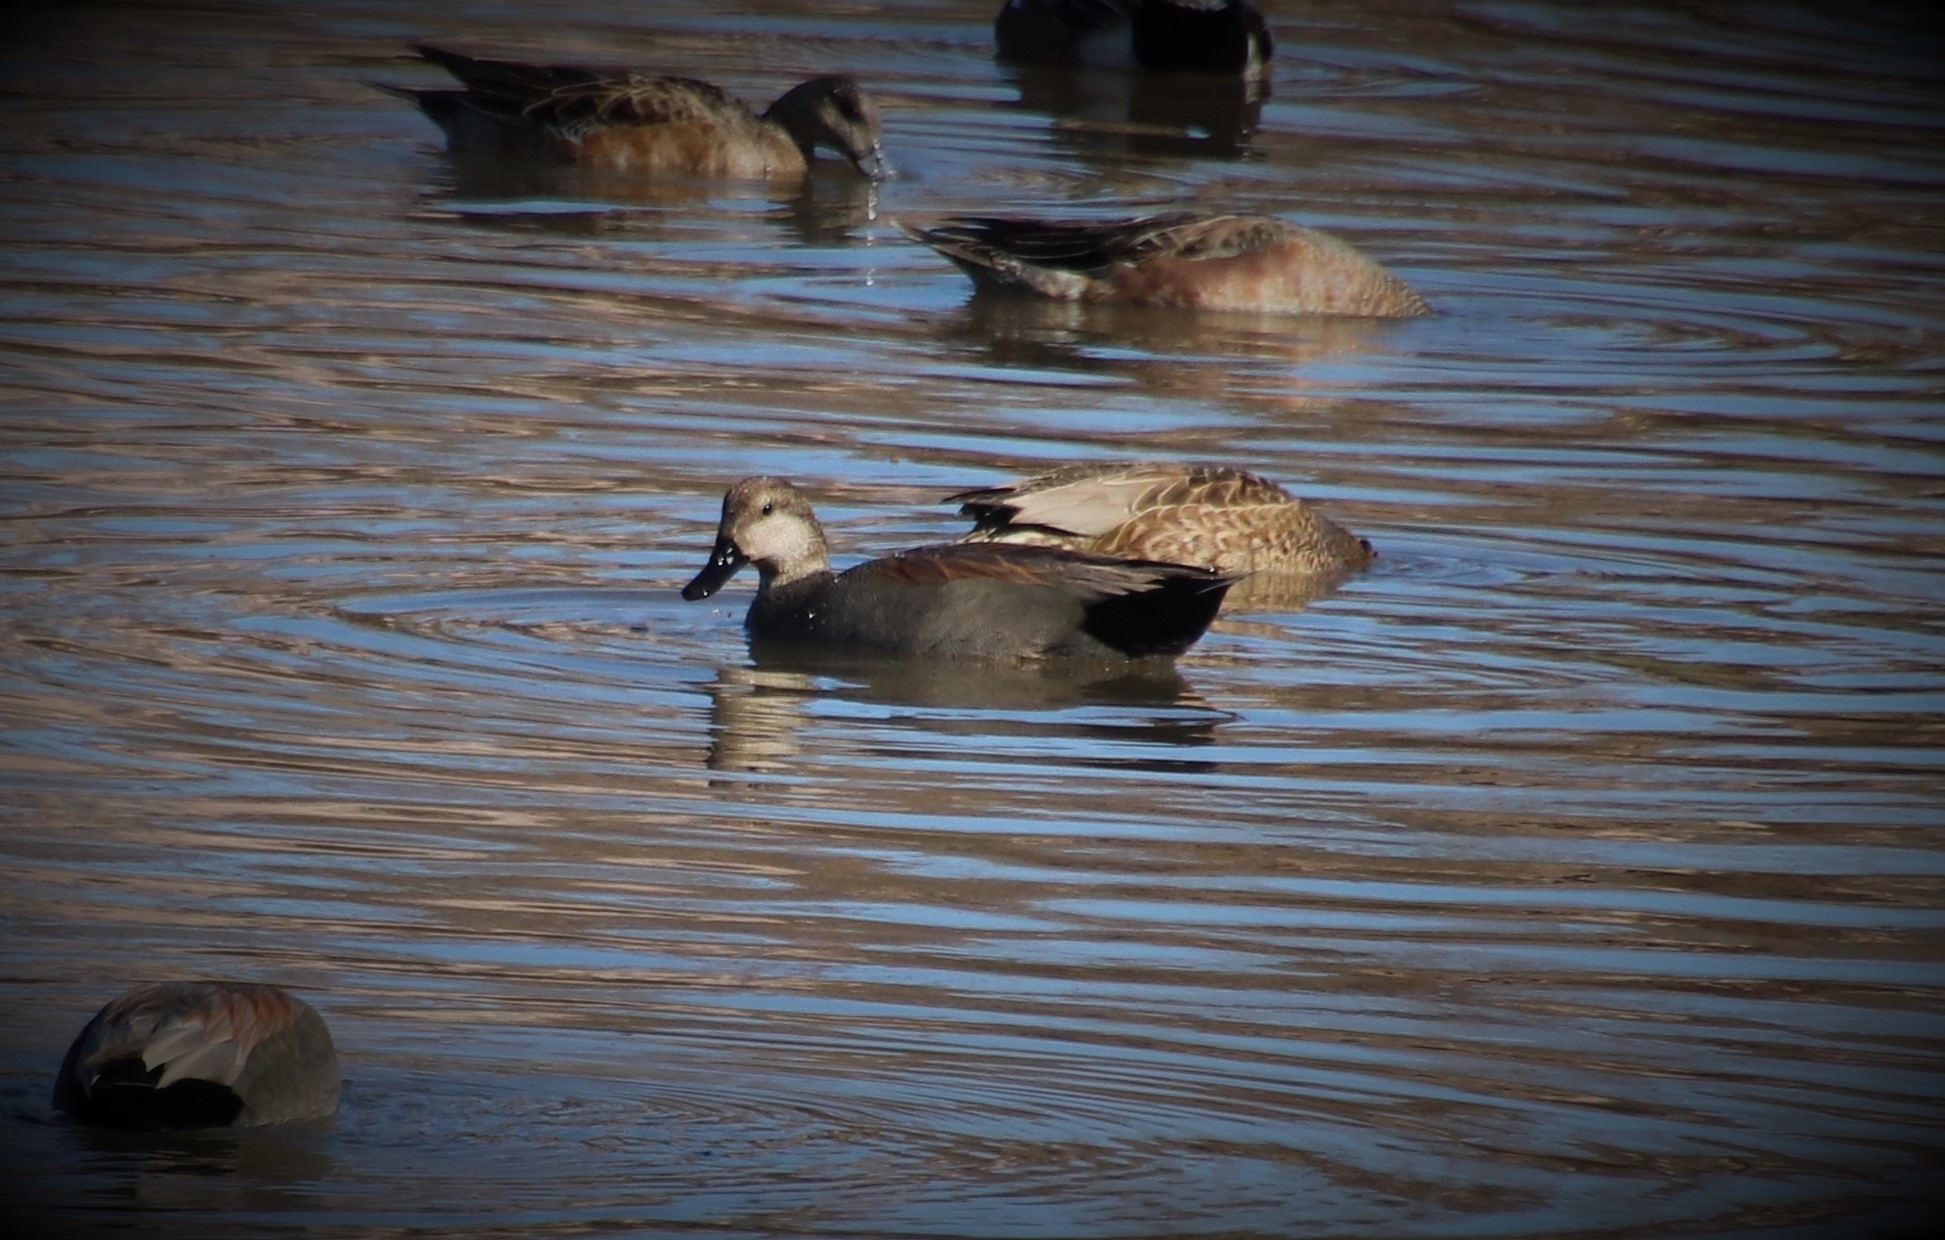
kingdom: Animalia
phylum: Chordata
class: Aves
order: Anseriformes
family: Anatidae
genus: Mareca
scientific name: Mareca strepera
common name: Gadwall
